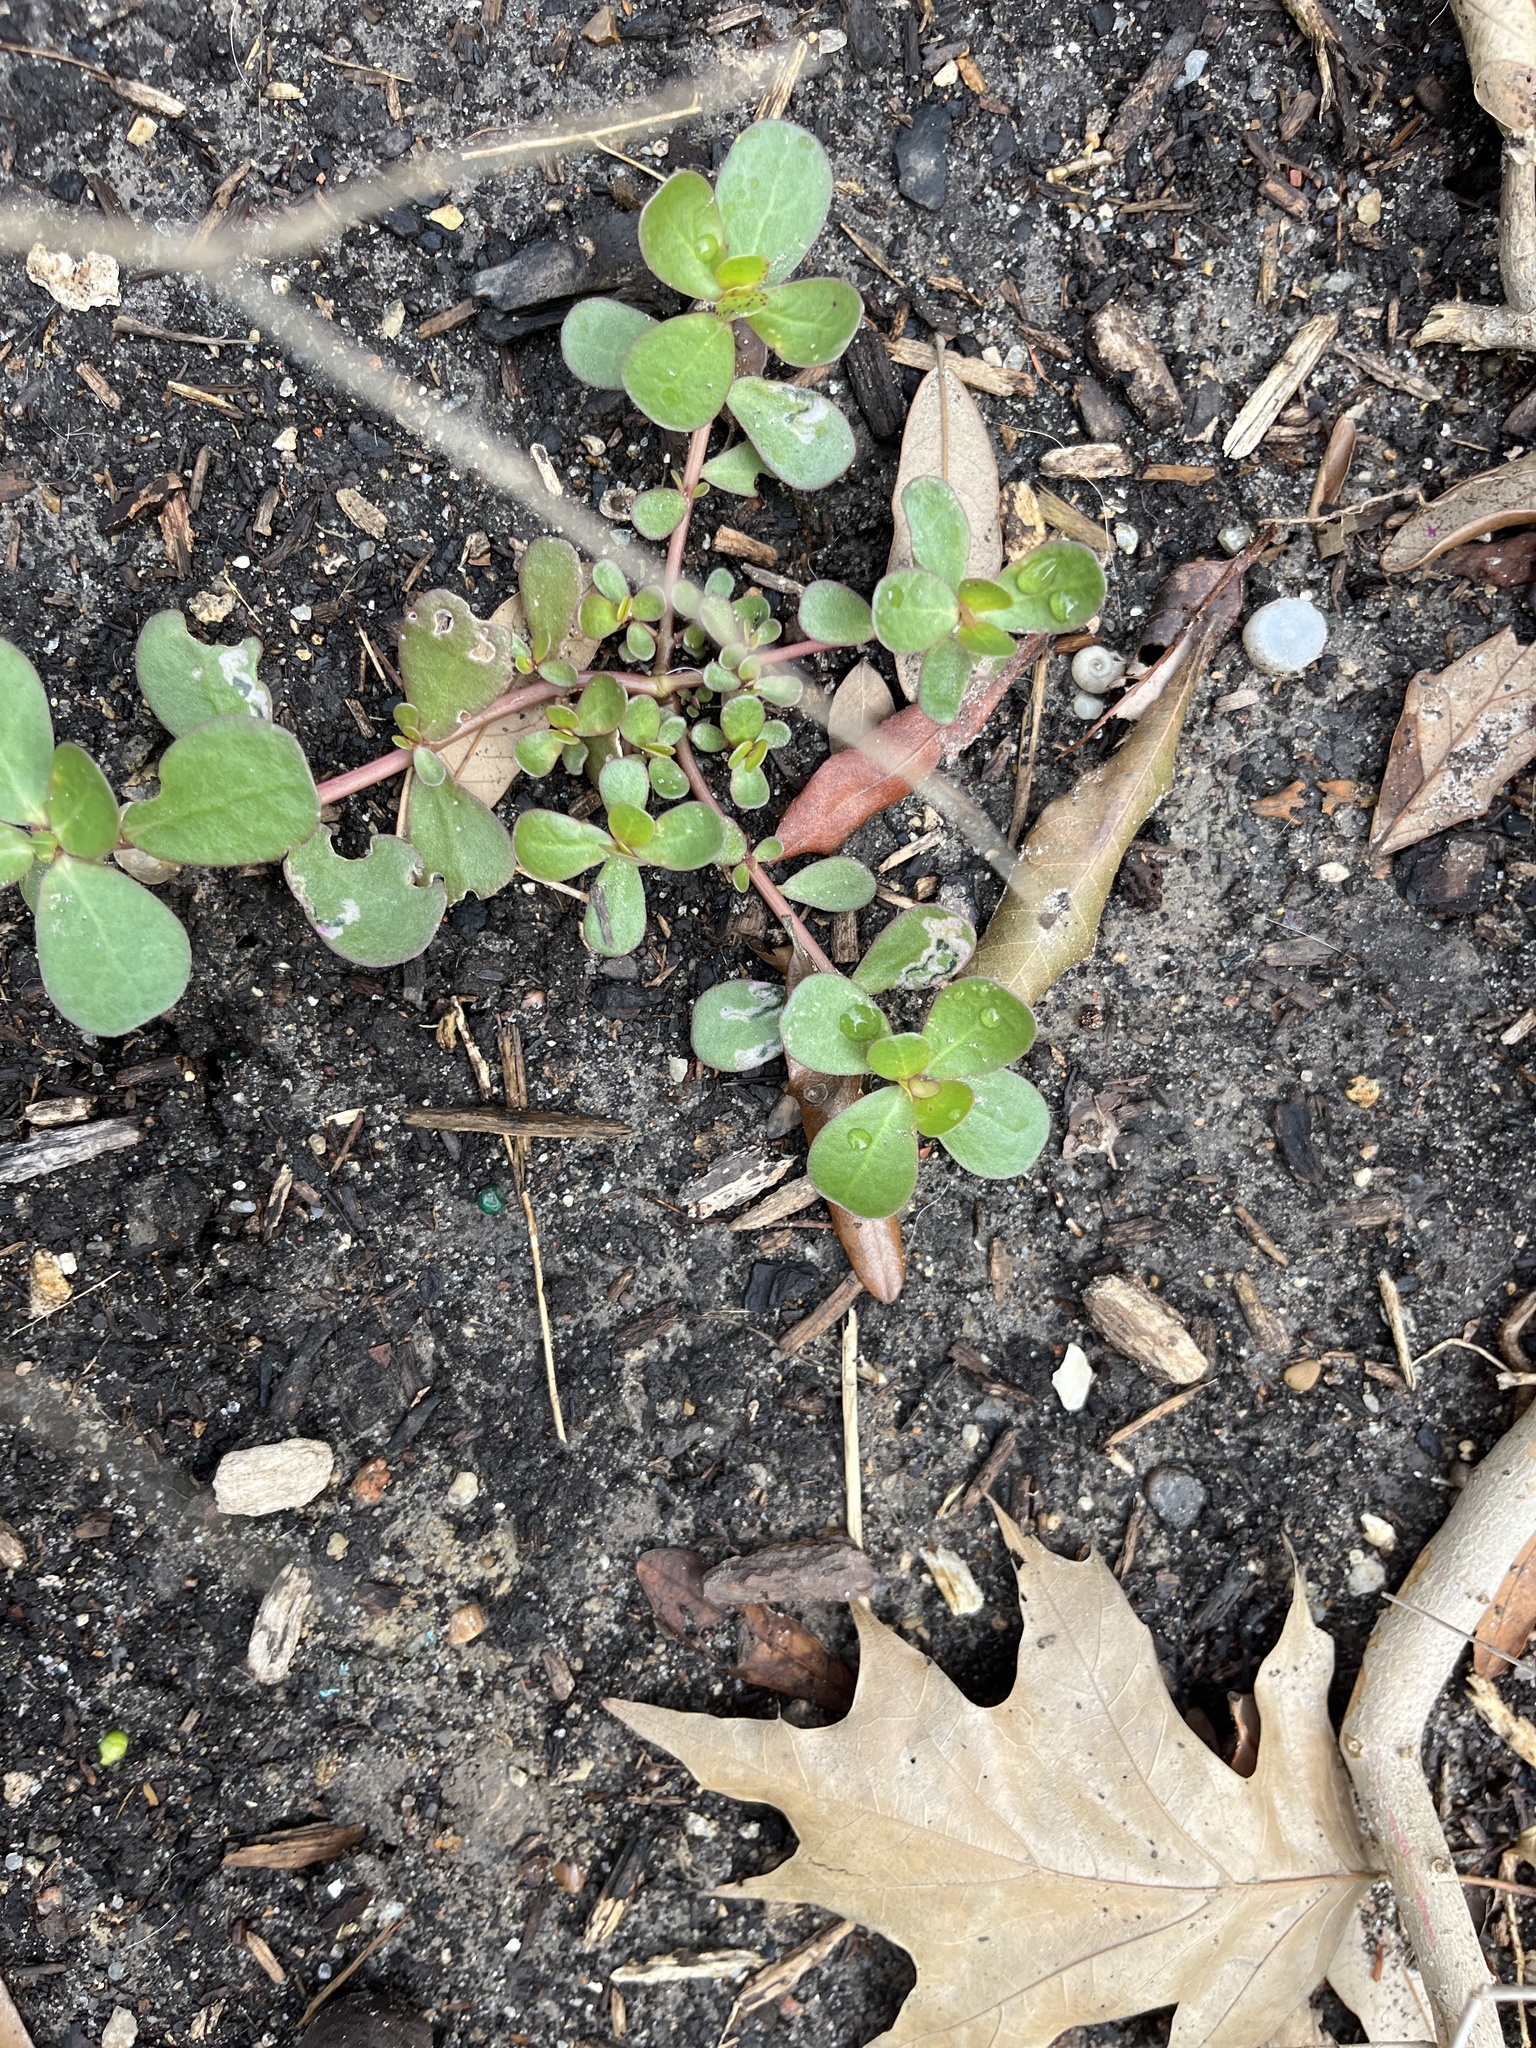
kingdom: Plantae
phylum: Tracheophyta
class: Magnoliopsida
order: Caryophyllales
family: Portulacaceae
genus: Portulaca
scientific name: Portulaca oleracea
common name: Common purslane
